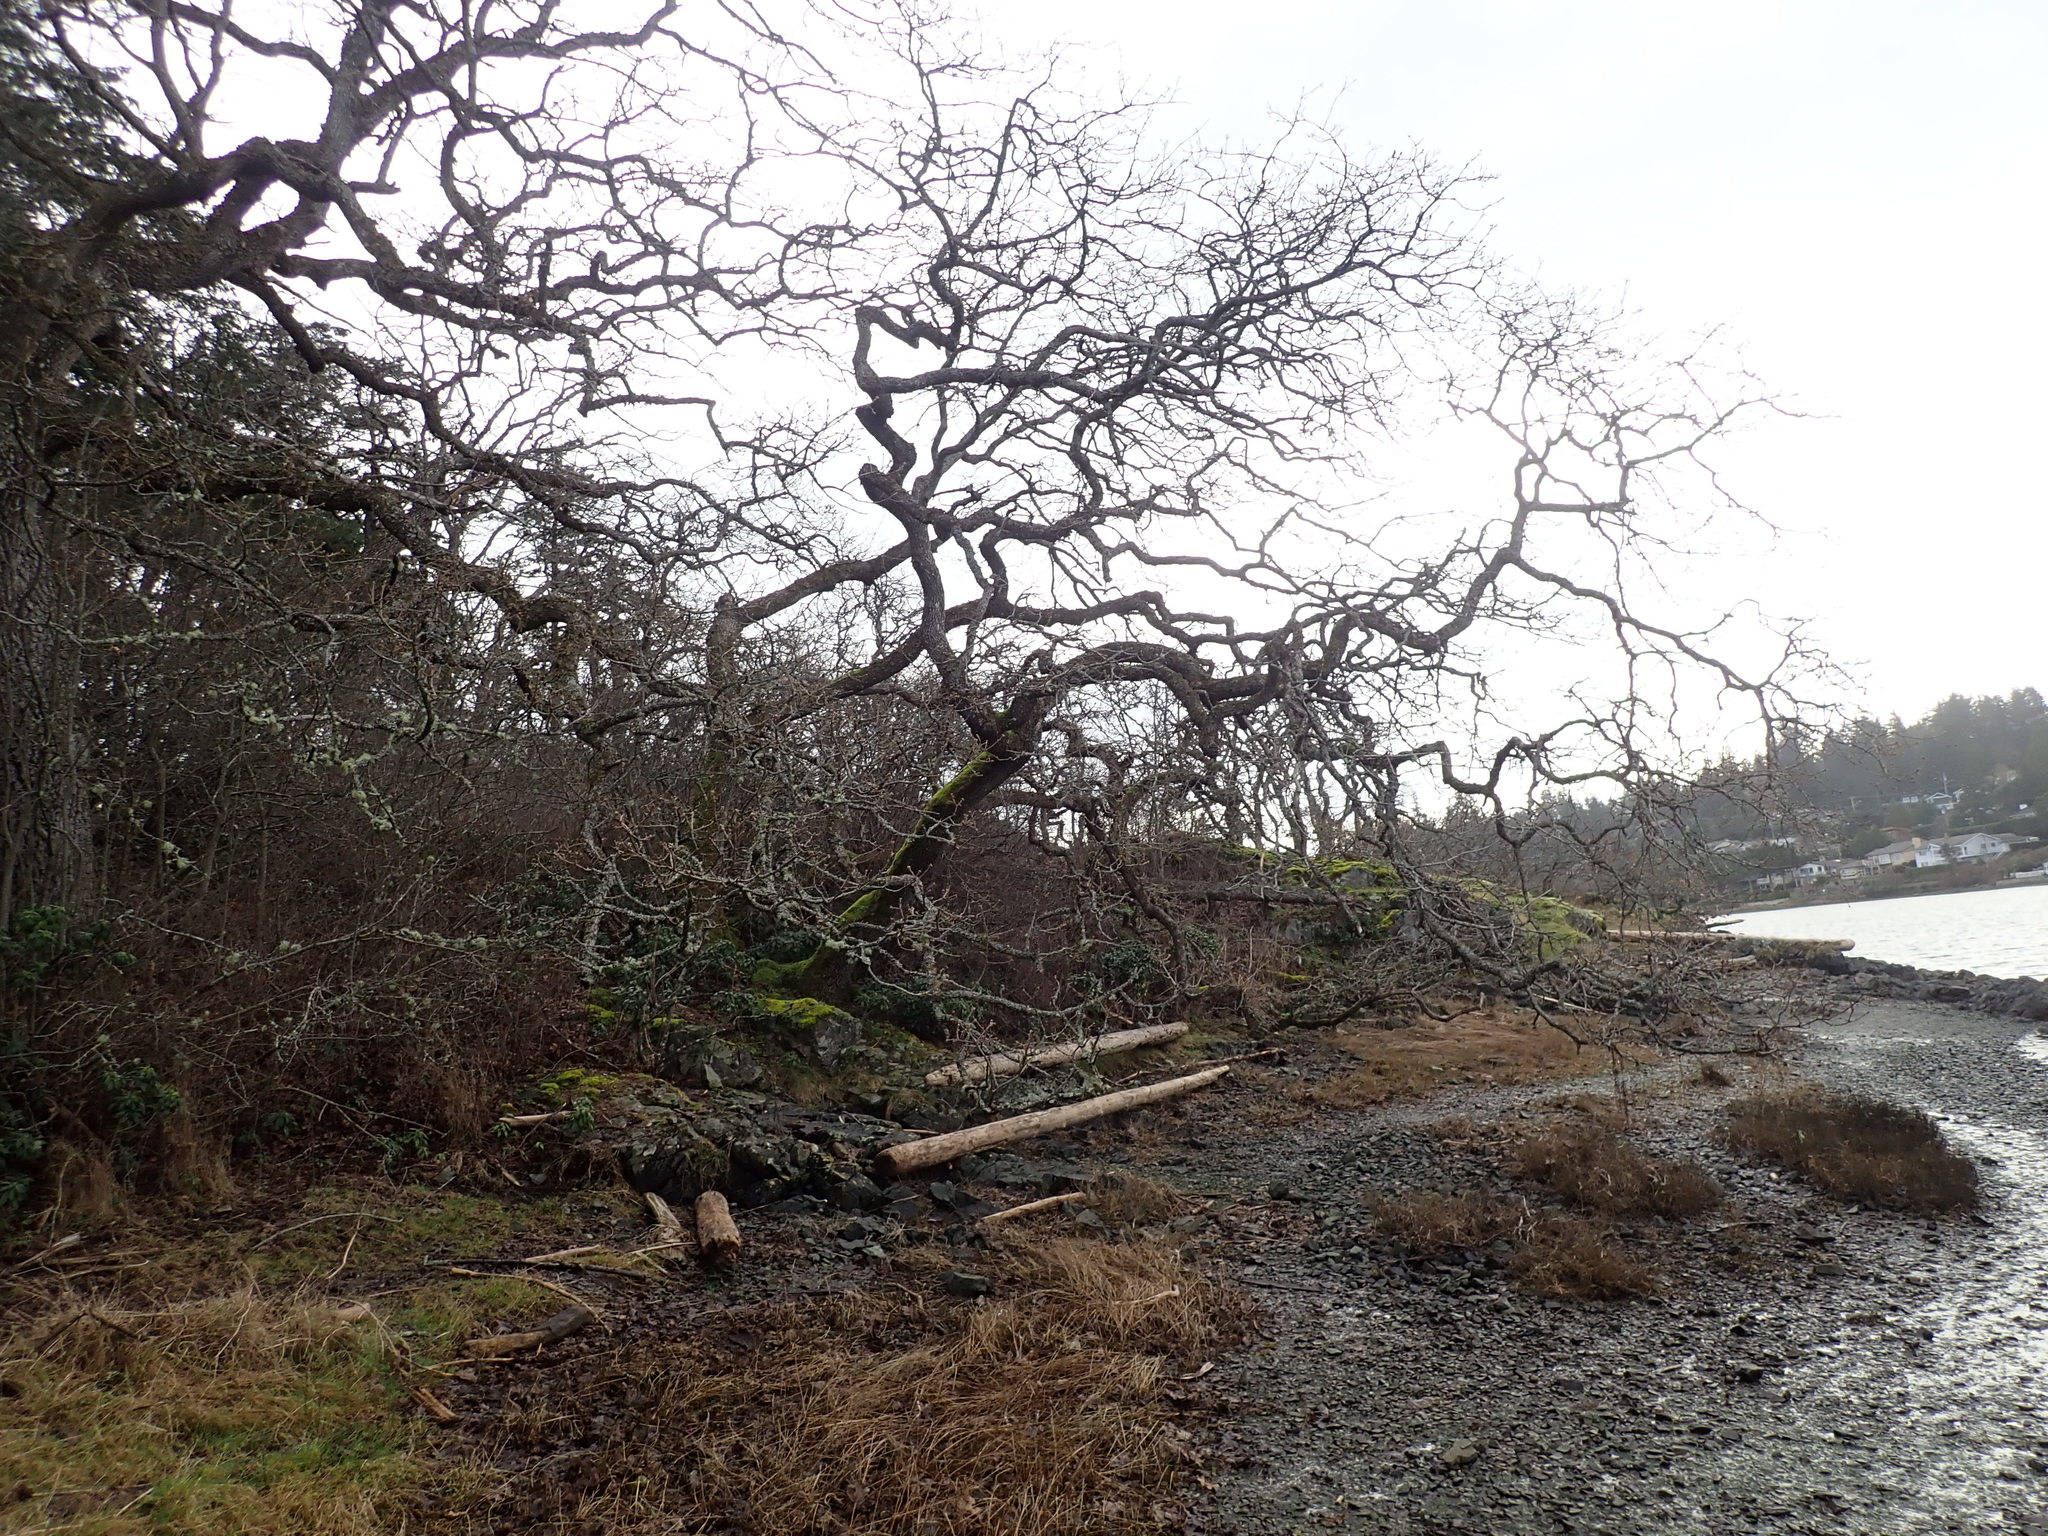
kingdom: Plantae
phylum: Tracheophyta
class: Magnoliopsida
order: Fagales
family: Fagaceae
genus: Quercus
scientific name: Quercus garryana
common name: Garry oak
